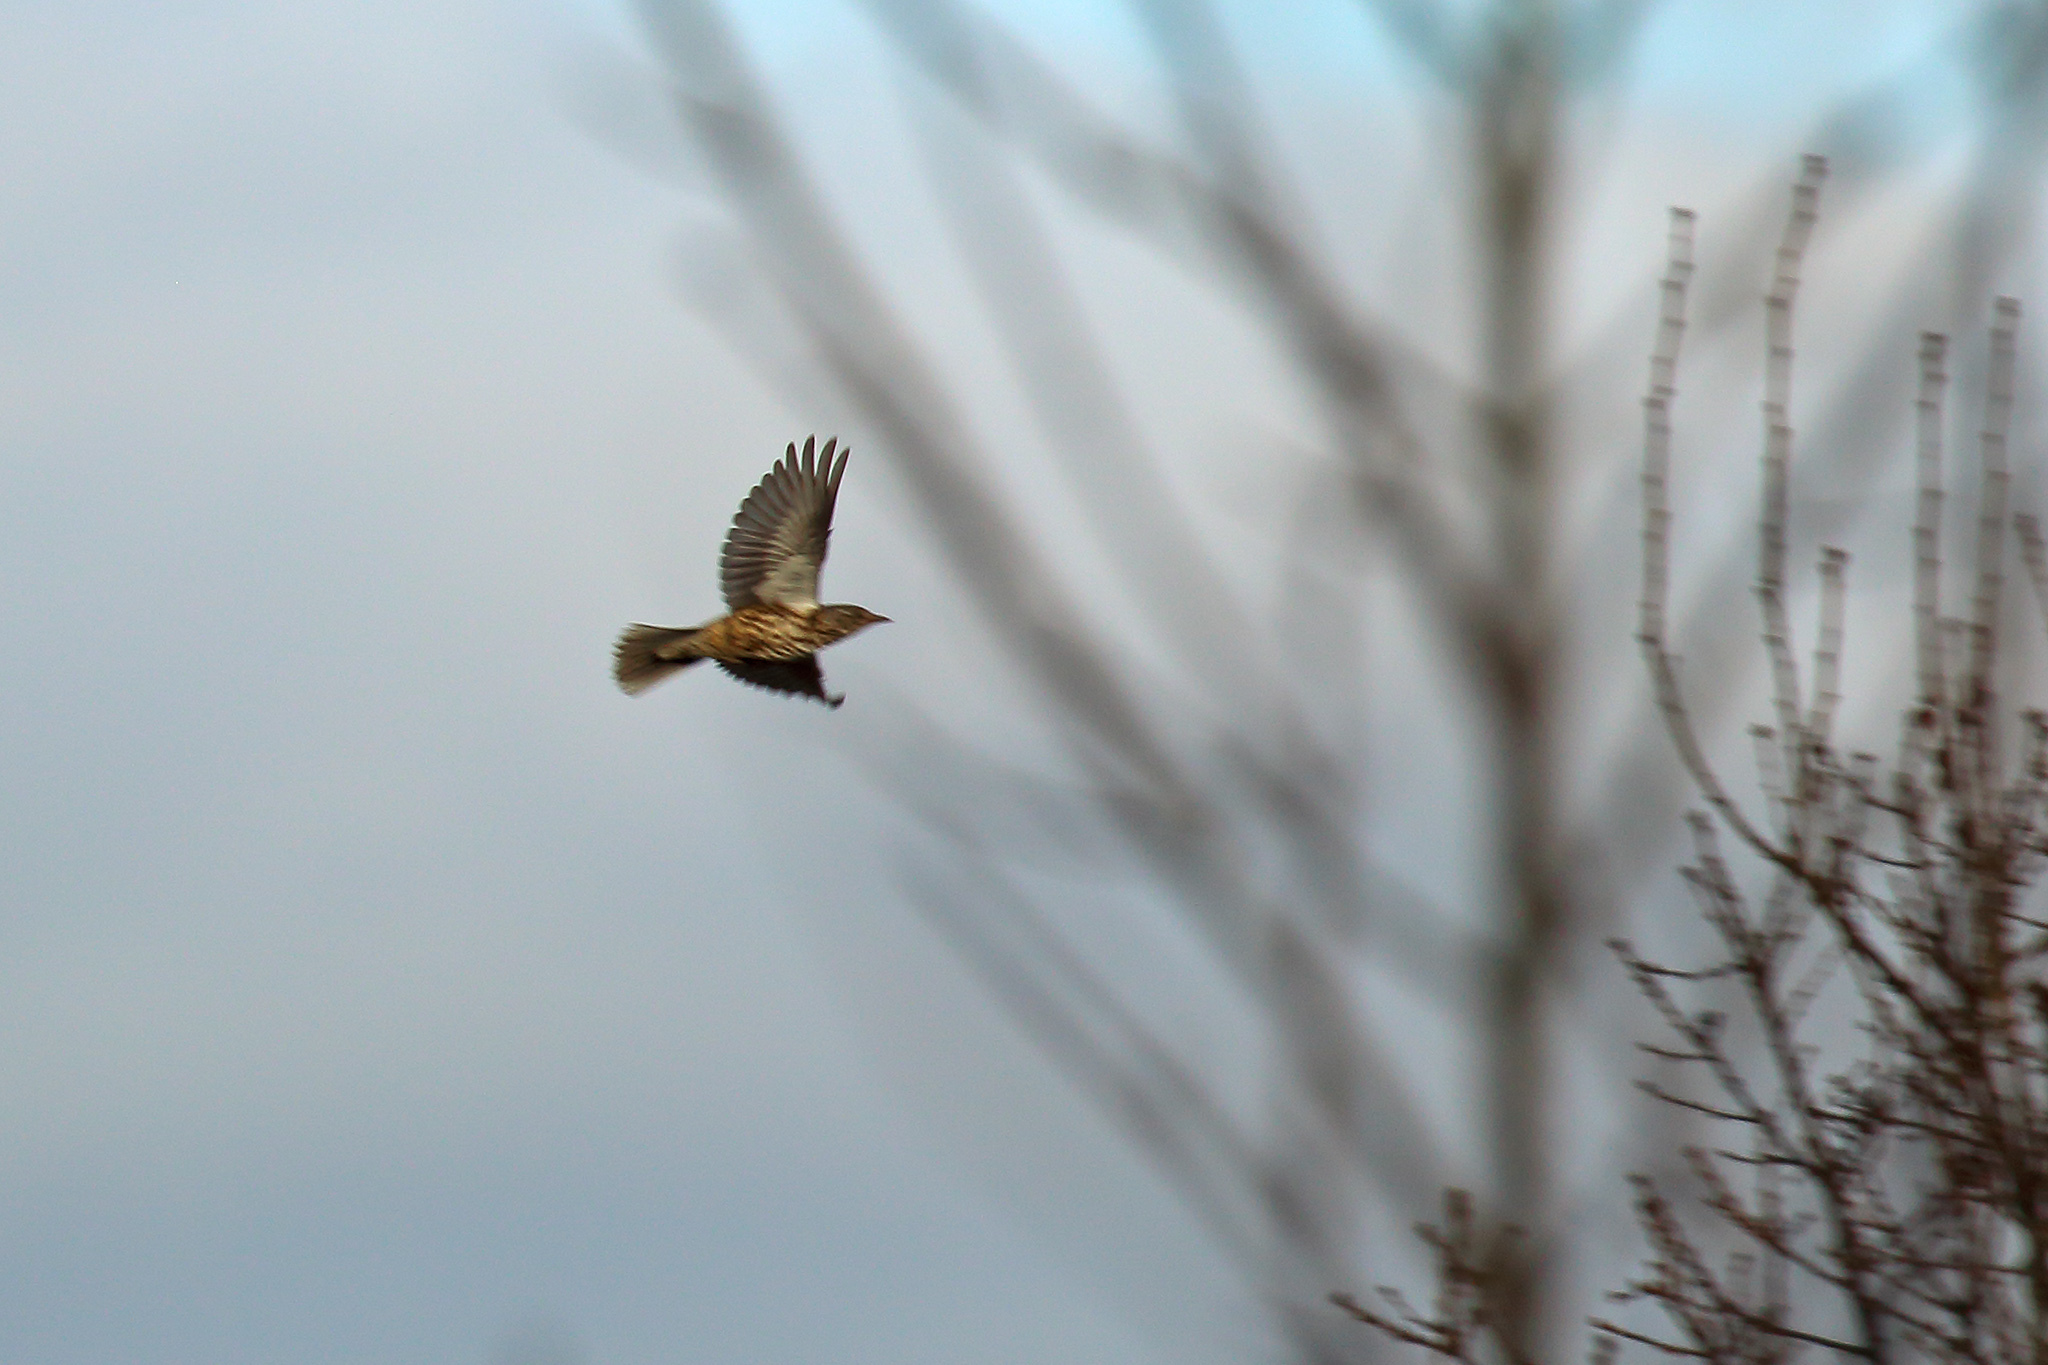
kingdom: Animalia
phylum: Chordata
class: Aves
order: Passeriformes
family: Turdidae
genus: Turdus
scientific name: Turdus viscivorus
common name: Mistle thrush
